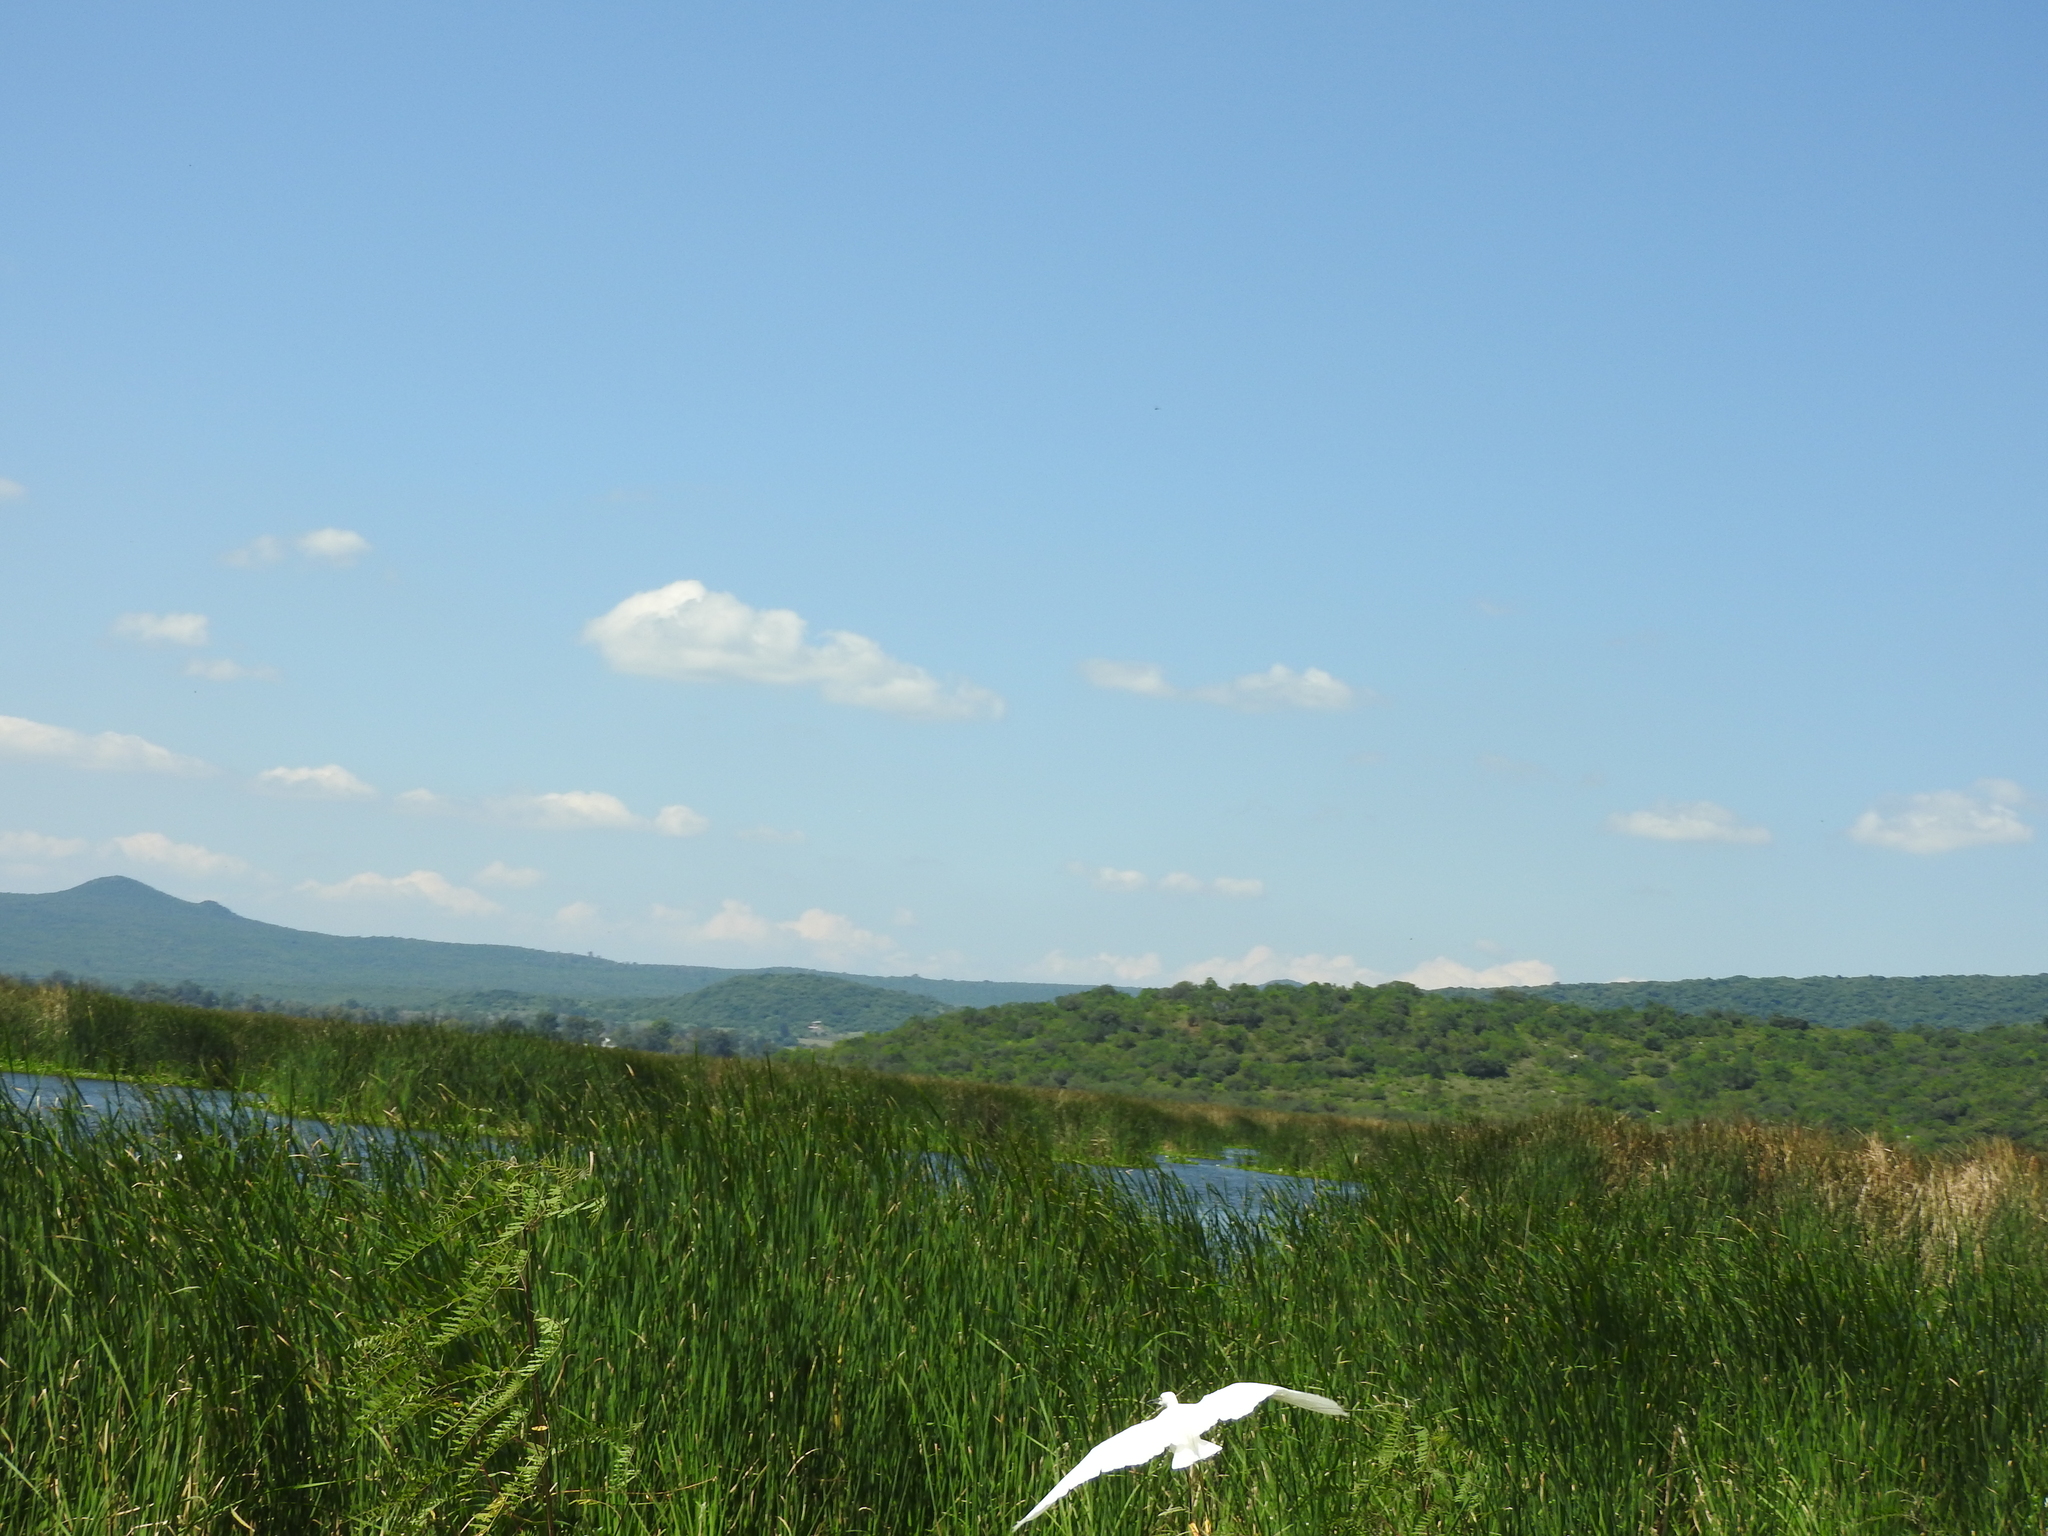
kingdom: Animalia
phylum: Chordata
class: Aves
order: Pelecaniformes
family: Ardeidae
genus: Egretta
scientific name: Egretta thula
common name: Snowy egret
